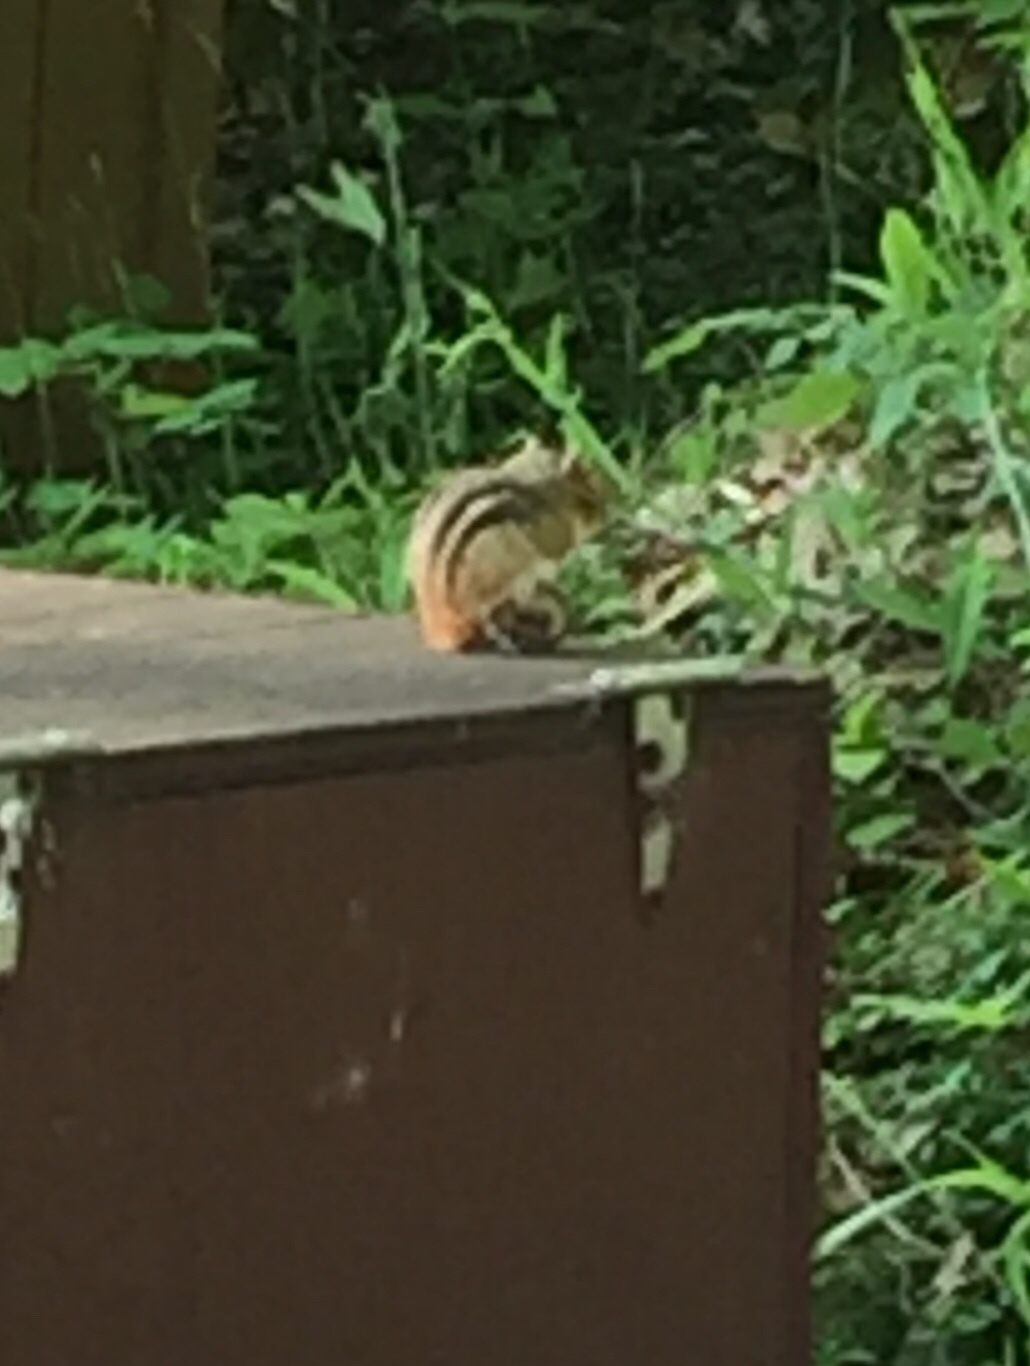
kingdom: Animalia
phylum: Chordata
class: Mammalia
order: Rodentia
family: Sciuridae
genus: Tamias
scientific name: Tamias striatus
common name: Eastern chipmunk
